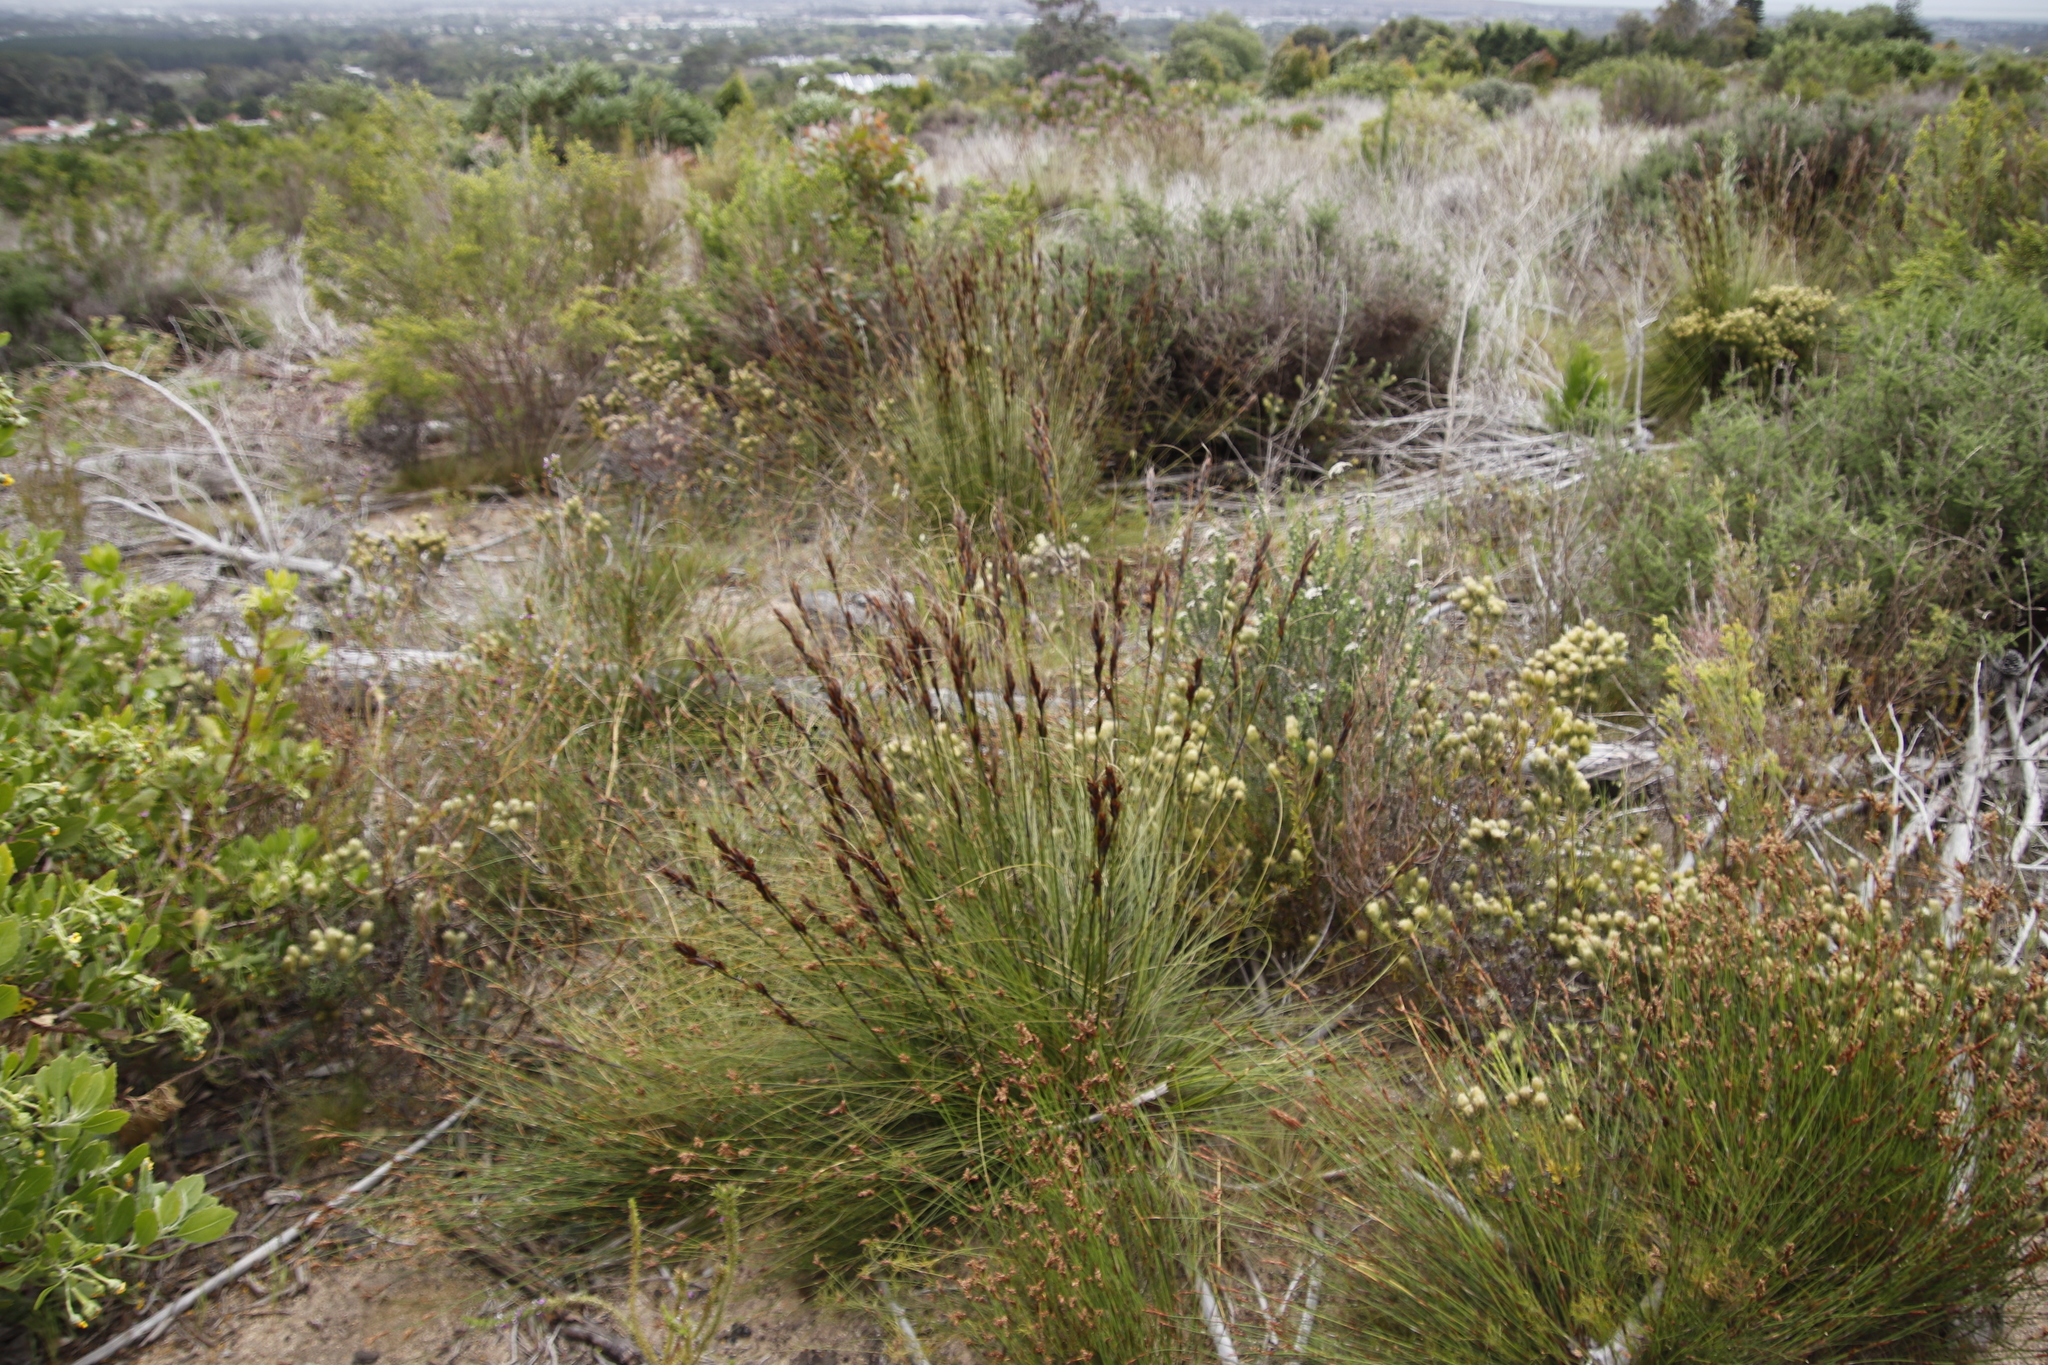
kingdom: Plantae
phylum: Tracheophyta
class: Liliopsida
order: Poales
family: Cyperaceae
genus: Tetraria
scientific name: Tetraria ustulata
